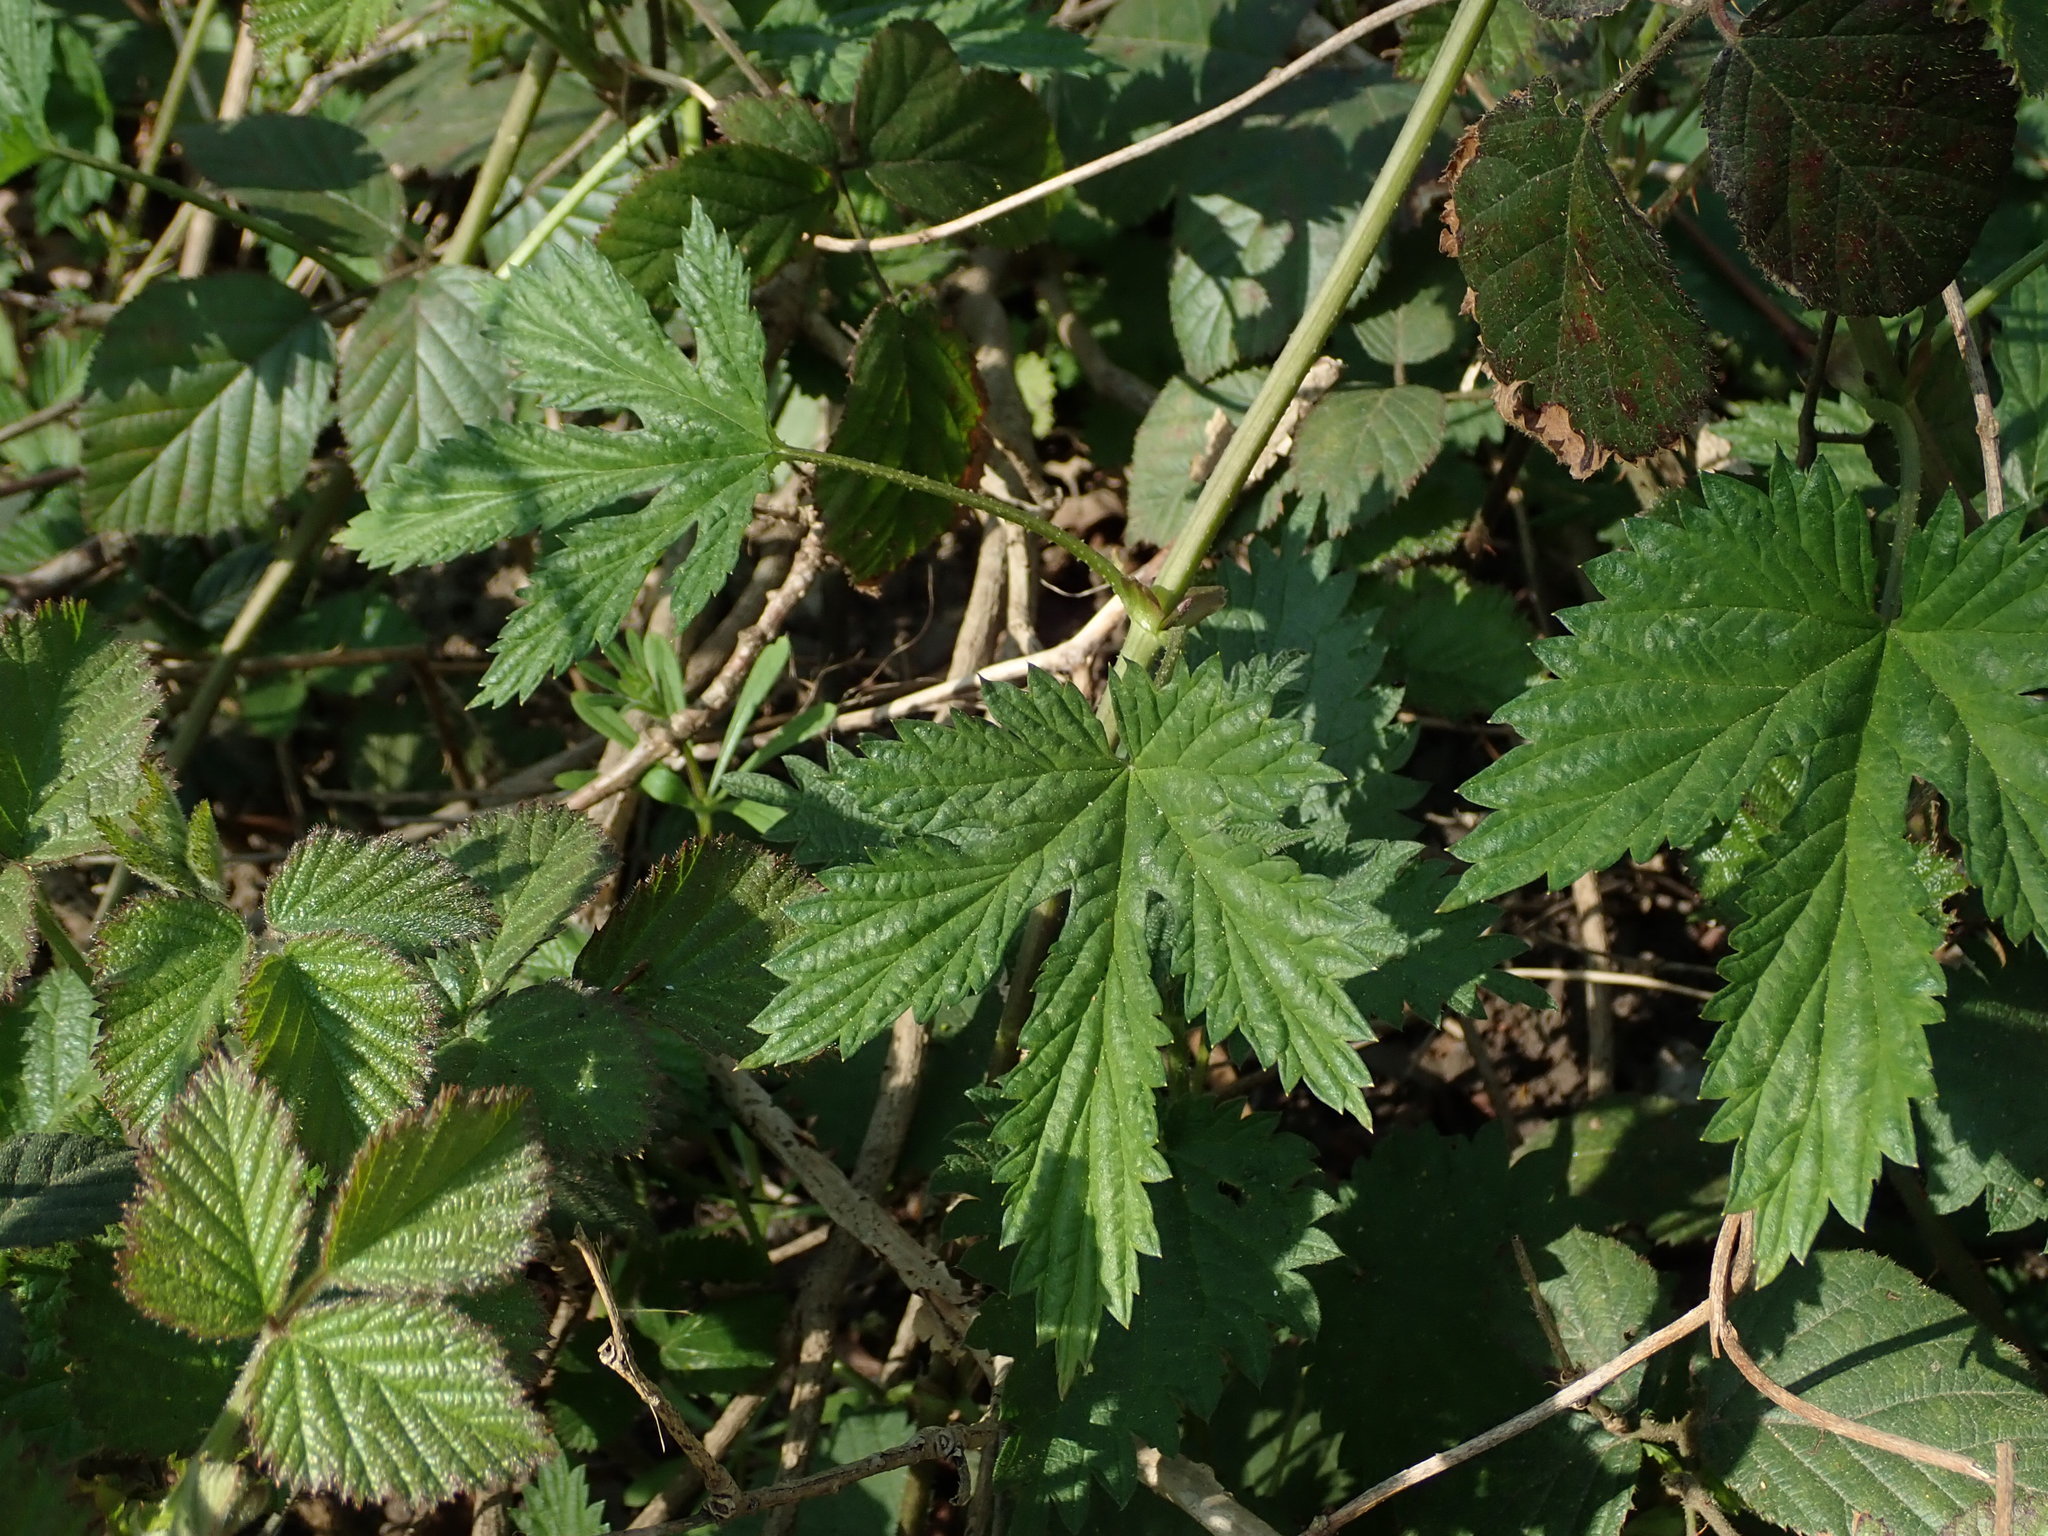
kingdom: Plantae
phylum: Tracheophyta
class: Magnoliopsida
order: Rosales
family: Cannabaceae
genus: Humulus
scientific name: Humulus lupulus
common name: Hop
